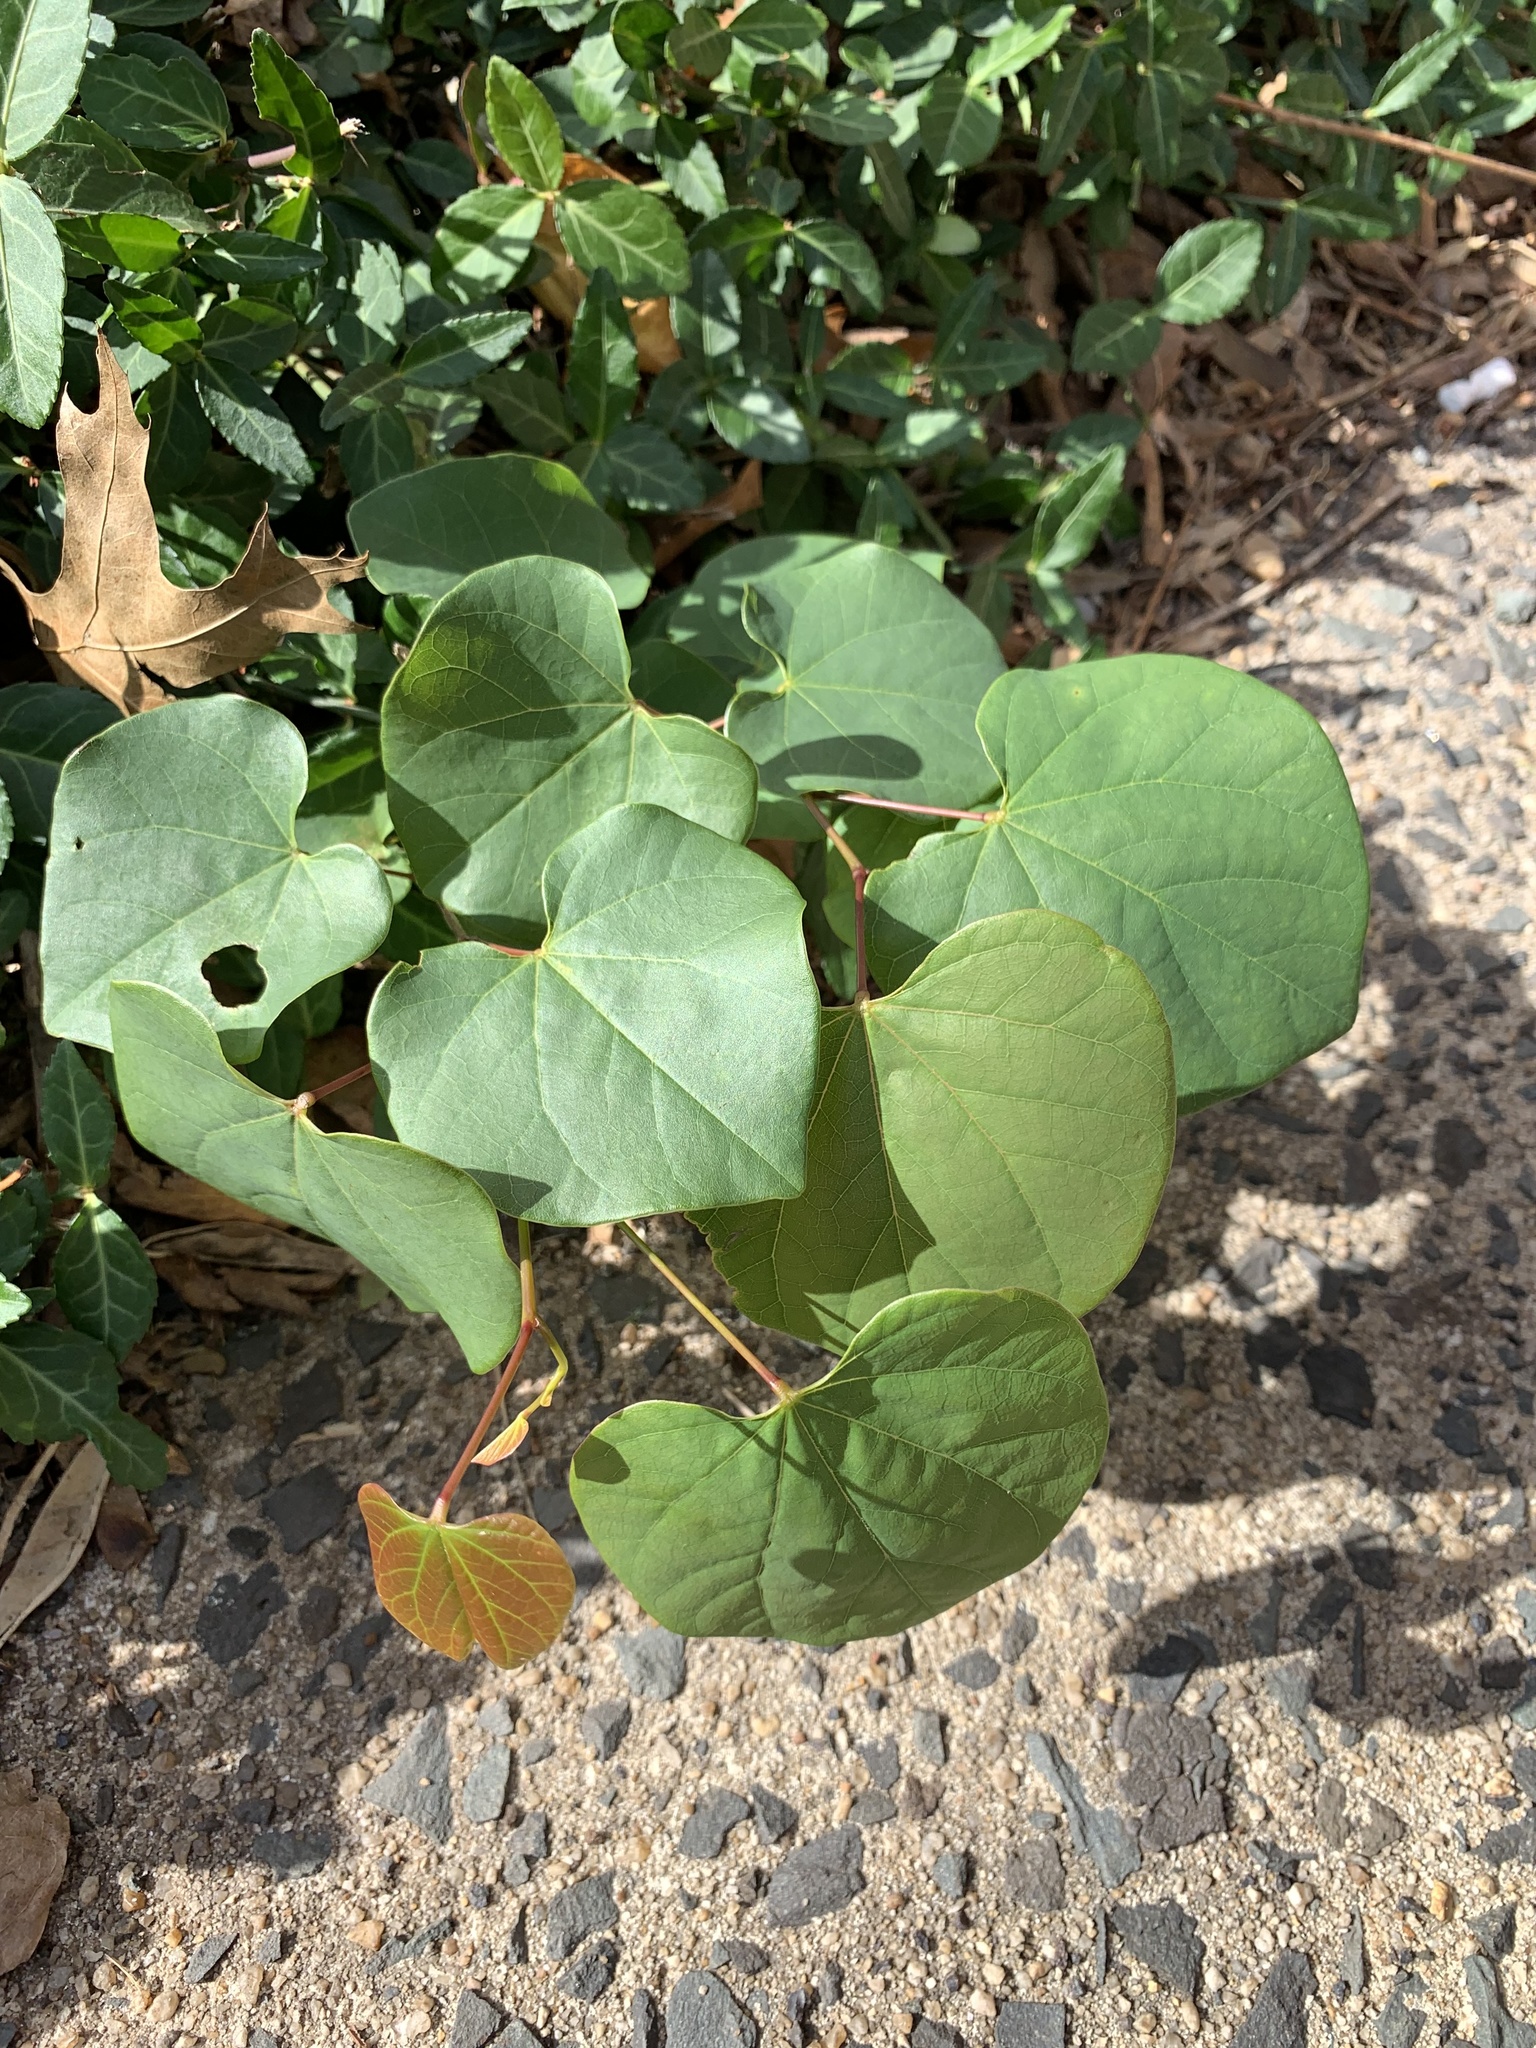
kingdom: Plantae
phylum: Tracheophyta
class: Magnoliopsida
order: Fabales
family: Fabaceae
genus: Cercis
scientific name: Cercis canadensis
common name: Eastern redbud
